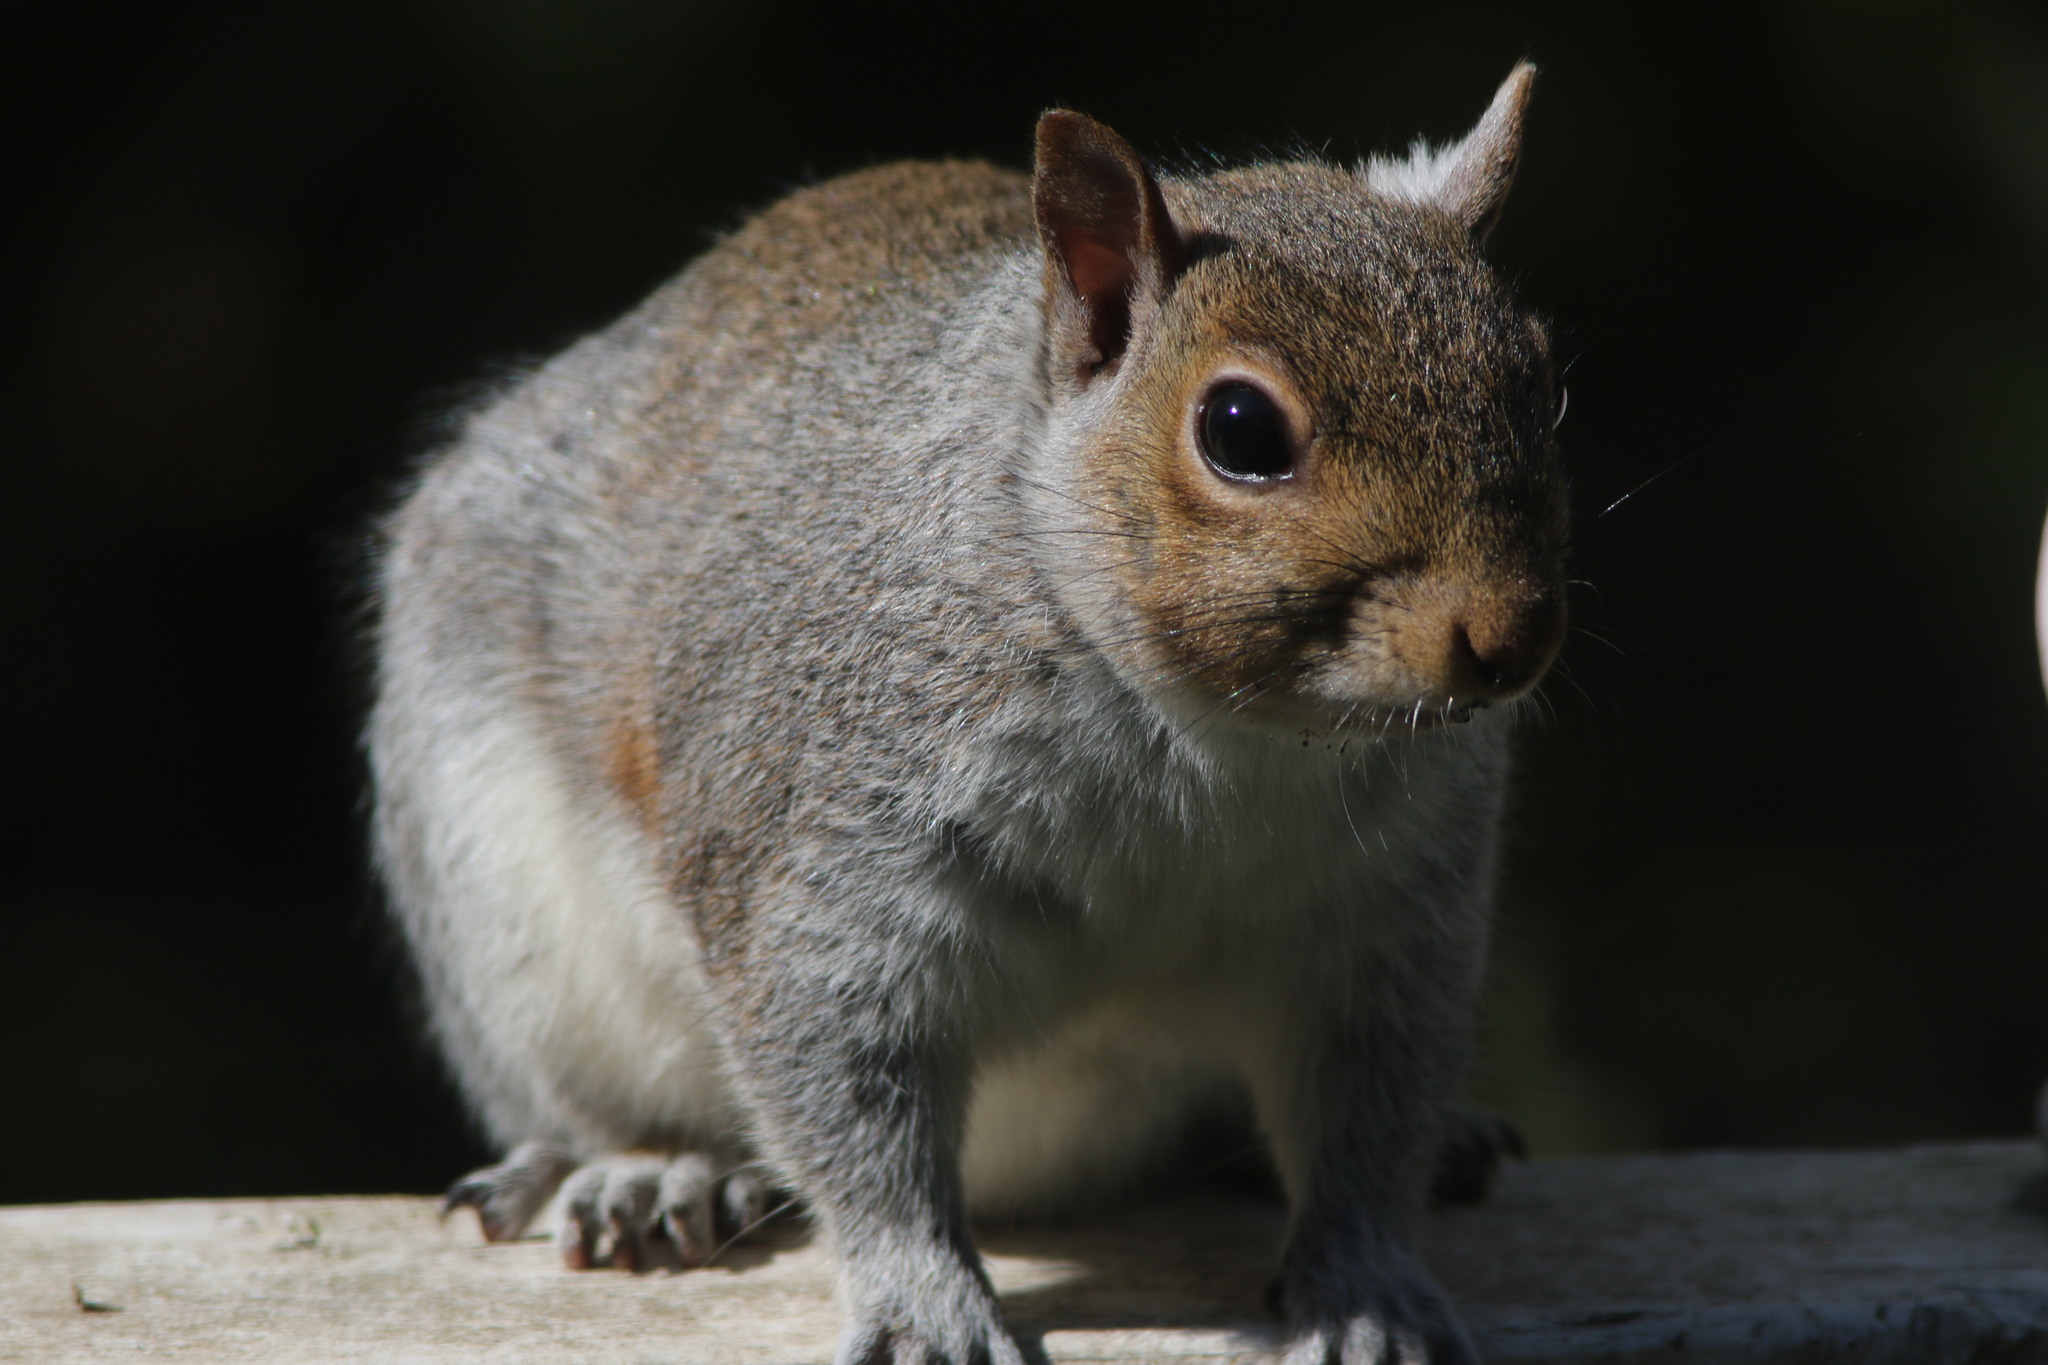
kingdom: Animalia
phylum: Chordata
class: Mammalia
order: Rodentia
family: Sciuridae
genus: Sciurus
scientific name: Sciurus carolinensis
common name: Eastern gray squirrel
